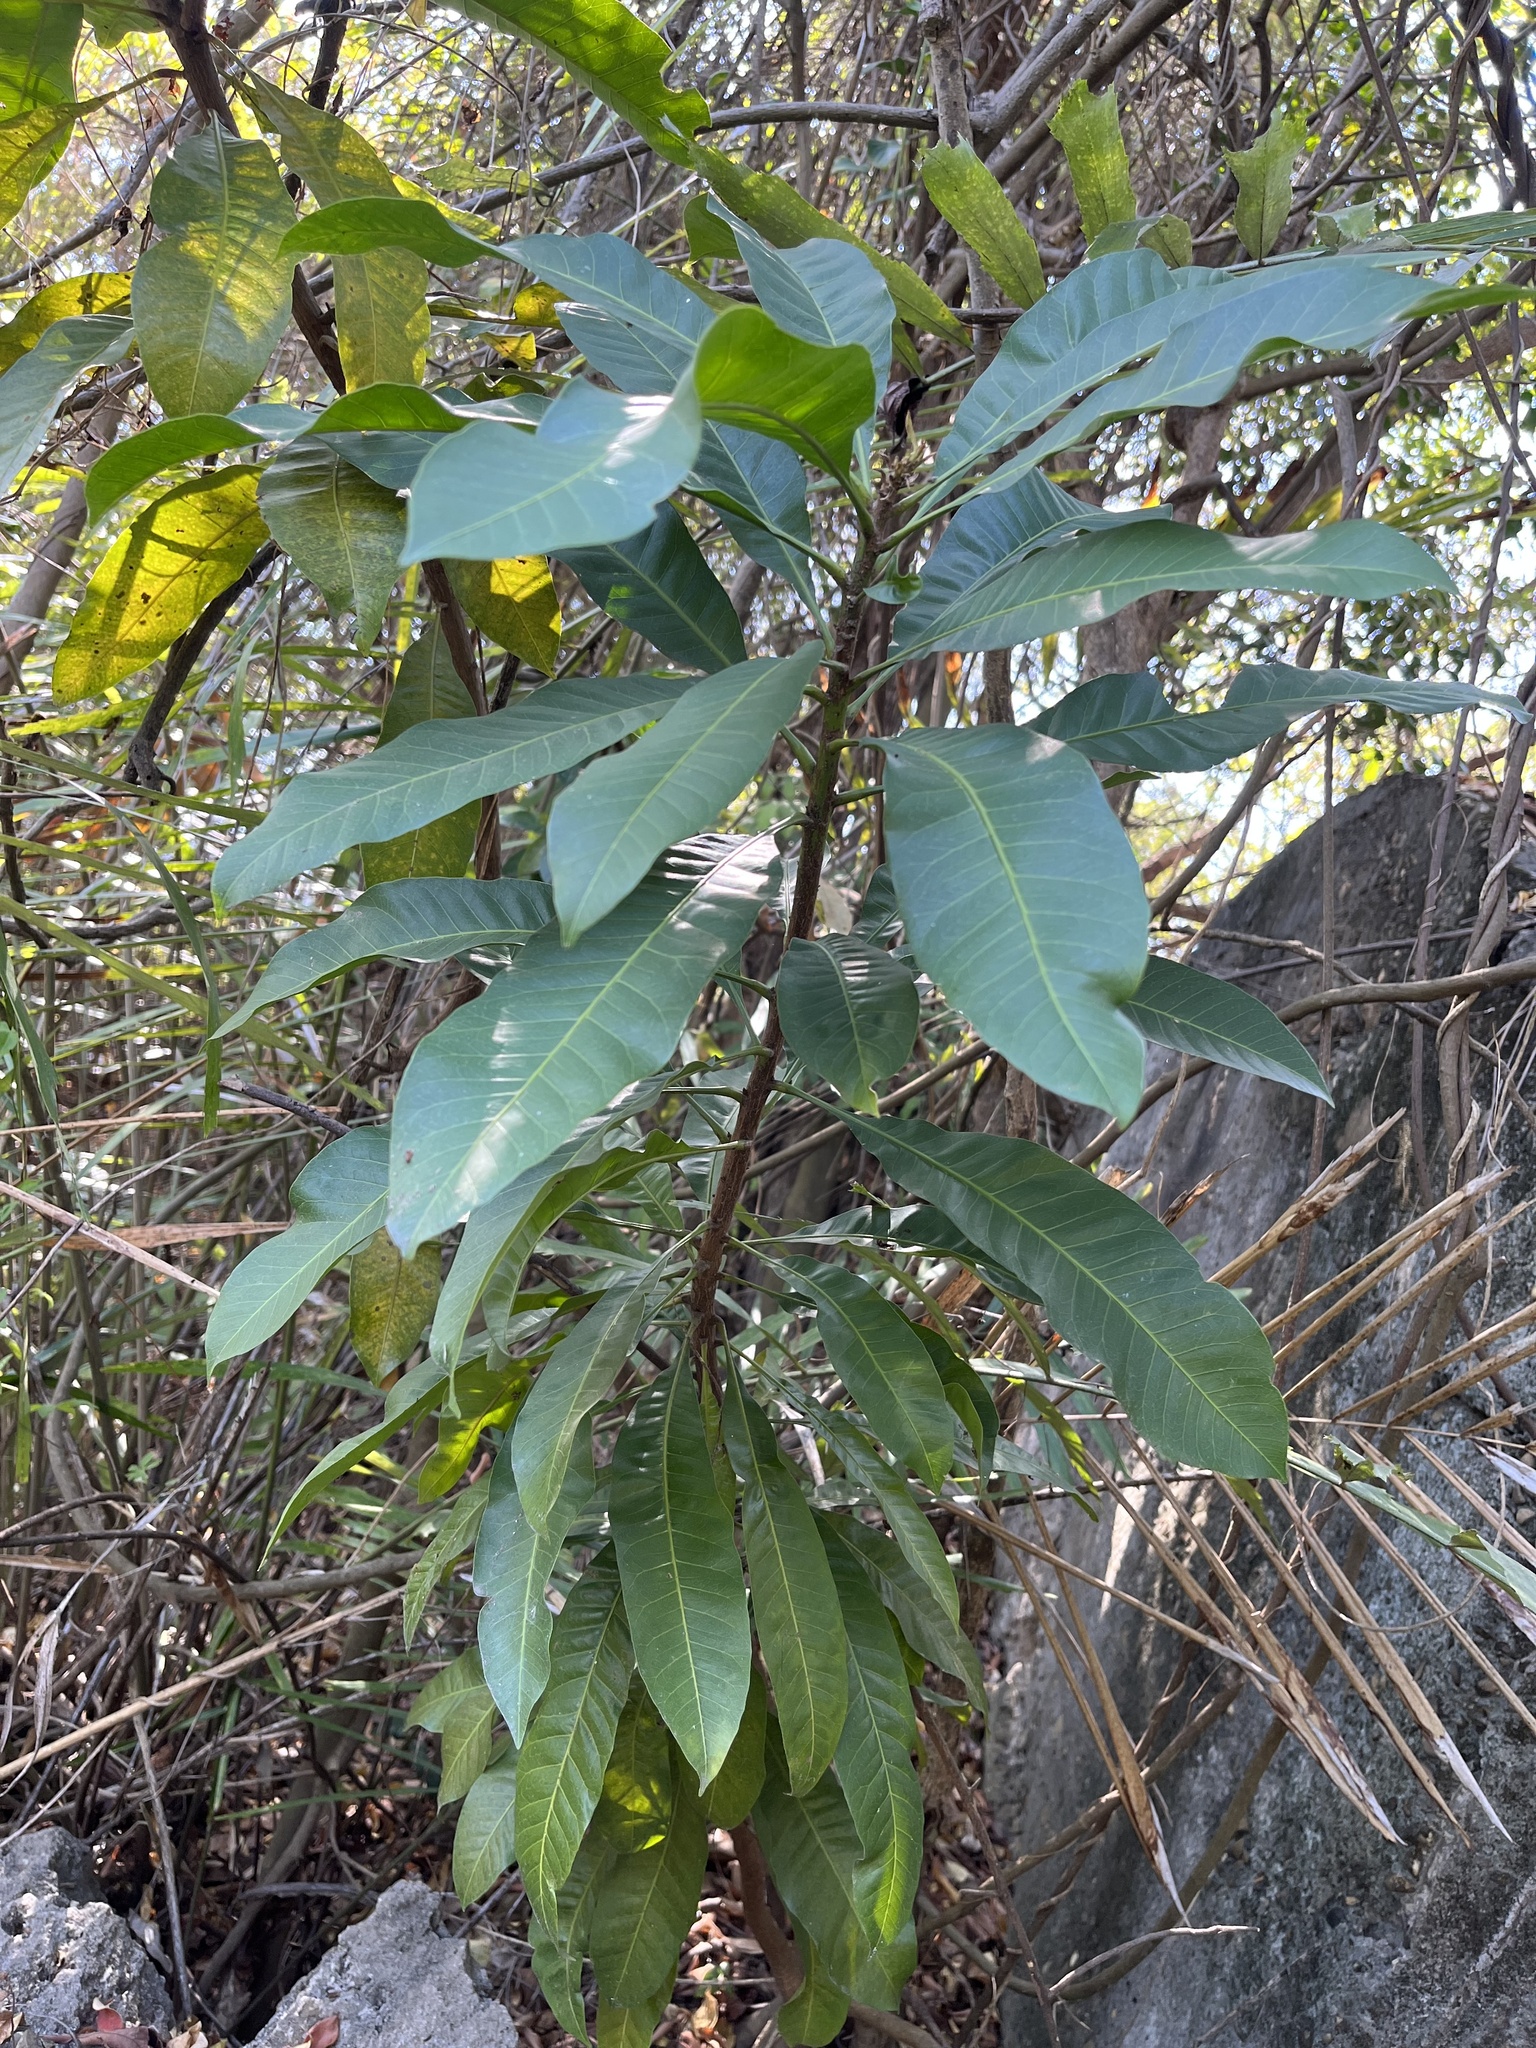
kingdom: Plantae
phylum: Tracheophyta
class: Magnoliopsida
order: Sapindales
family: Anacardiaceae
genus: Buchanania
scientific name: Buchanania arborescens
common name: Sparrow’s mango
